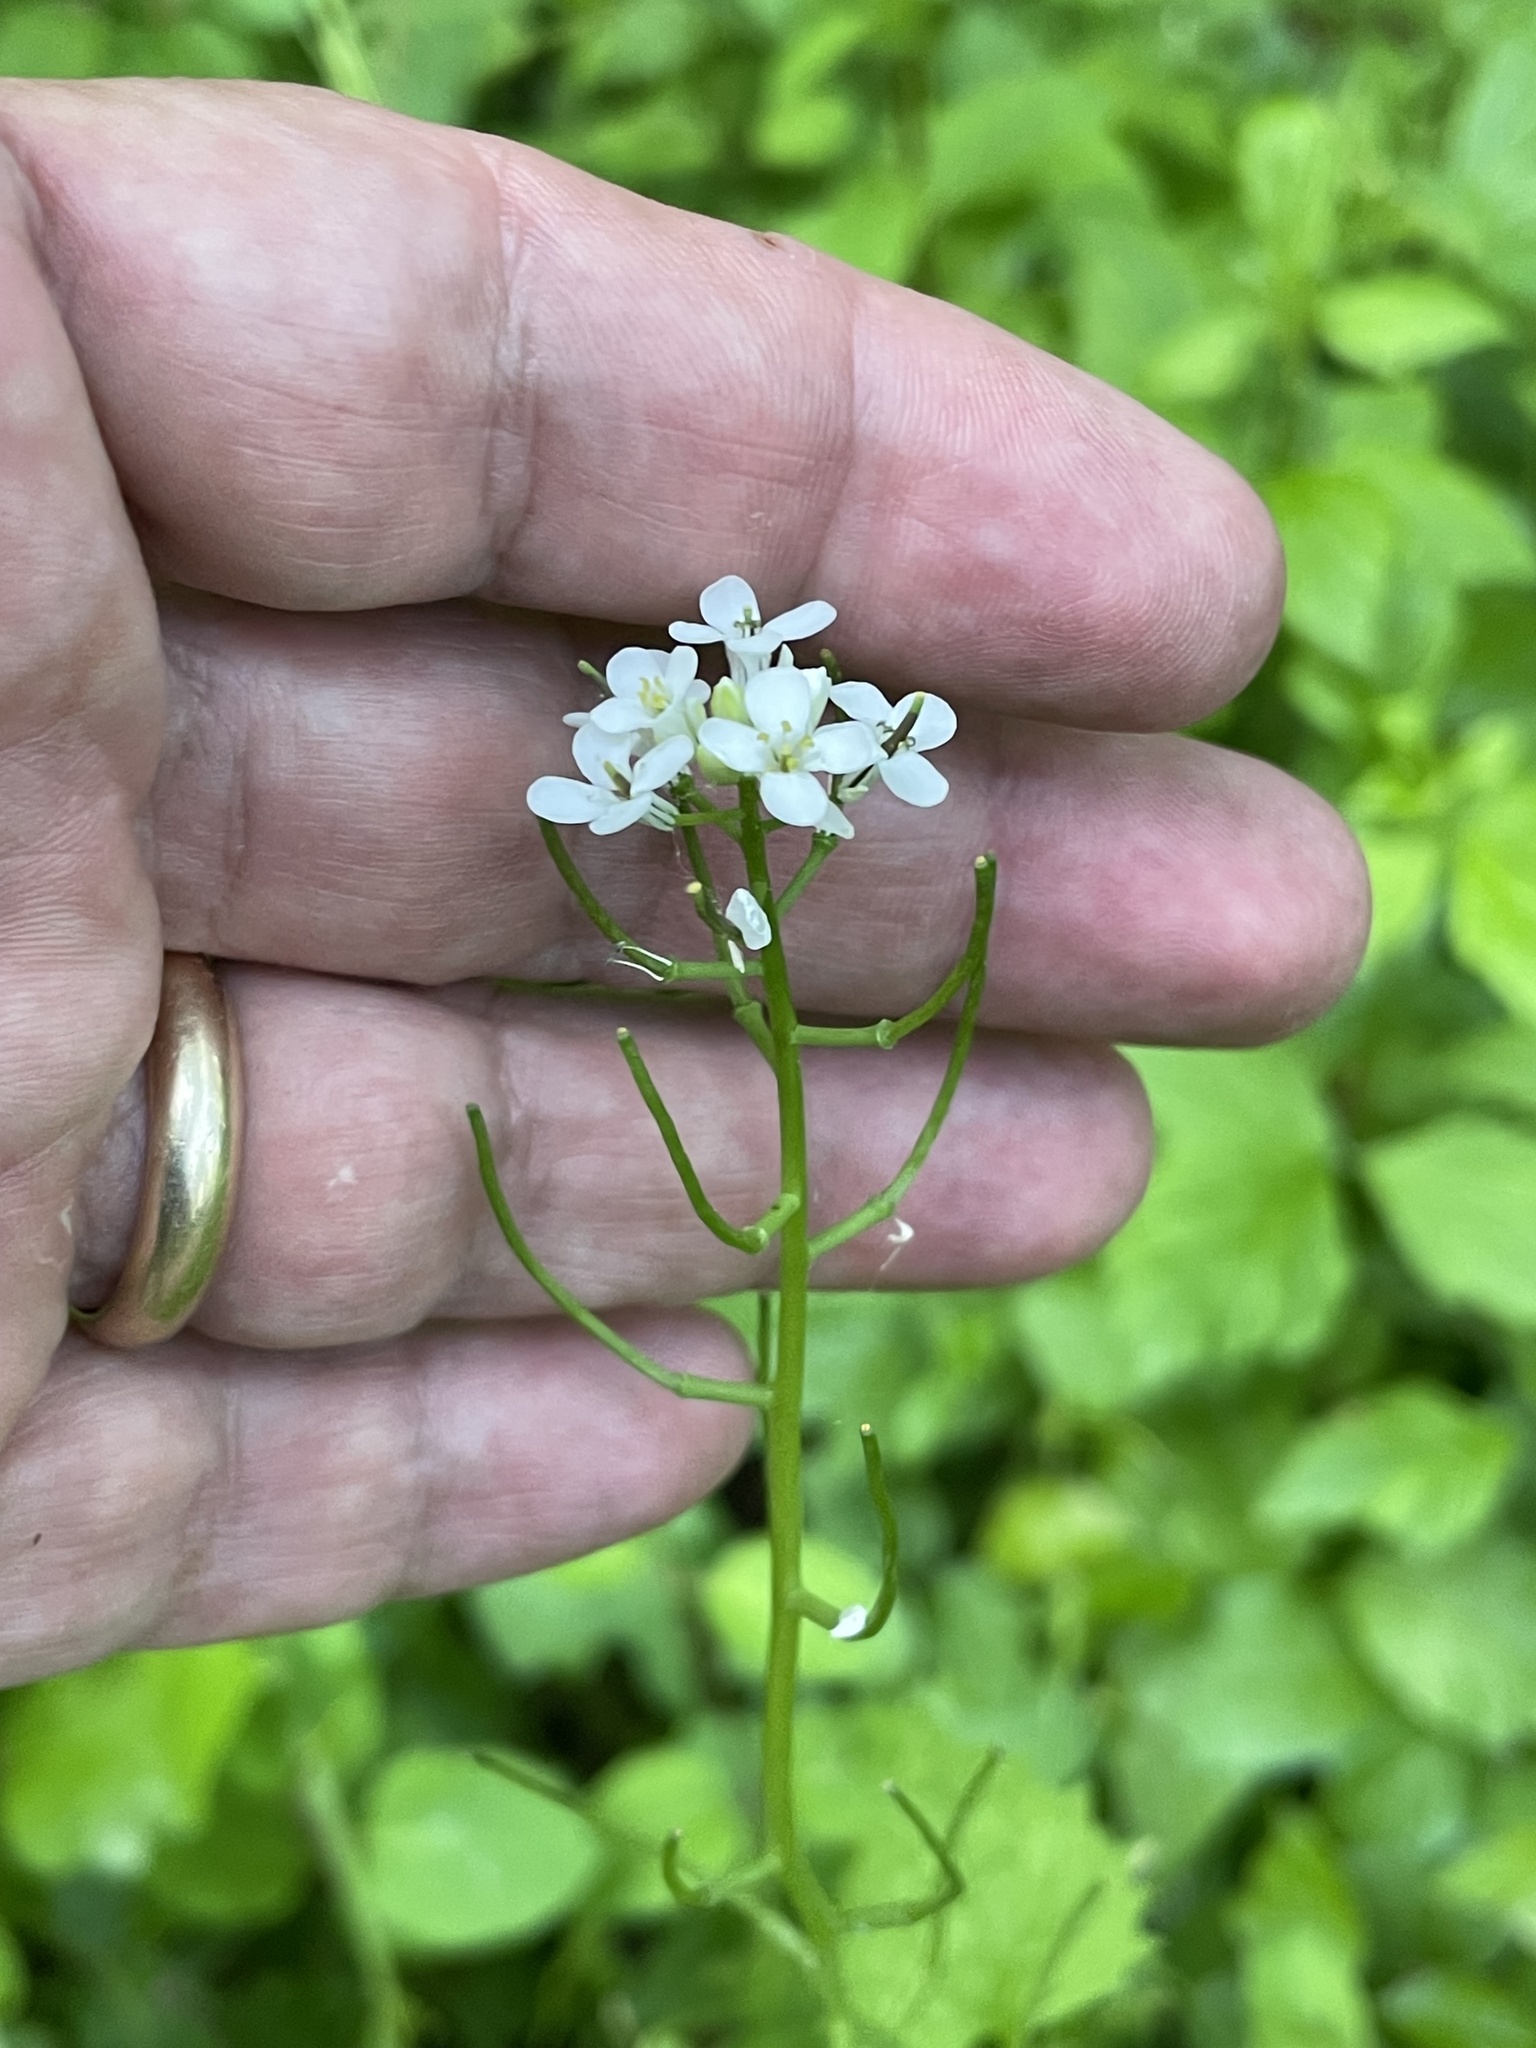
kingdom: Plantae
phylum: Tracheophyta
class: Magnoliopsida
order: Brassicales
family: Brassicaceae
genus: Alliaria
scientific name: Alliaria petiolata
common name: Garlic mustard
